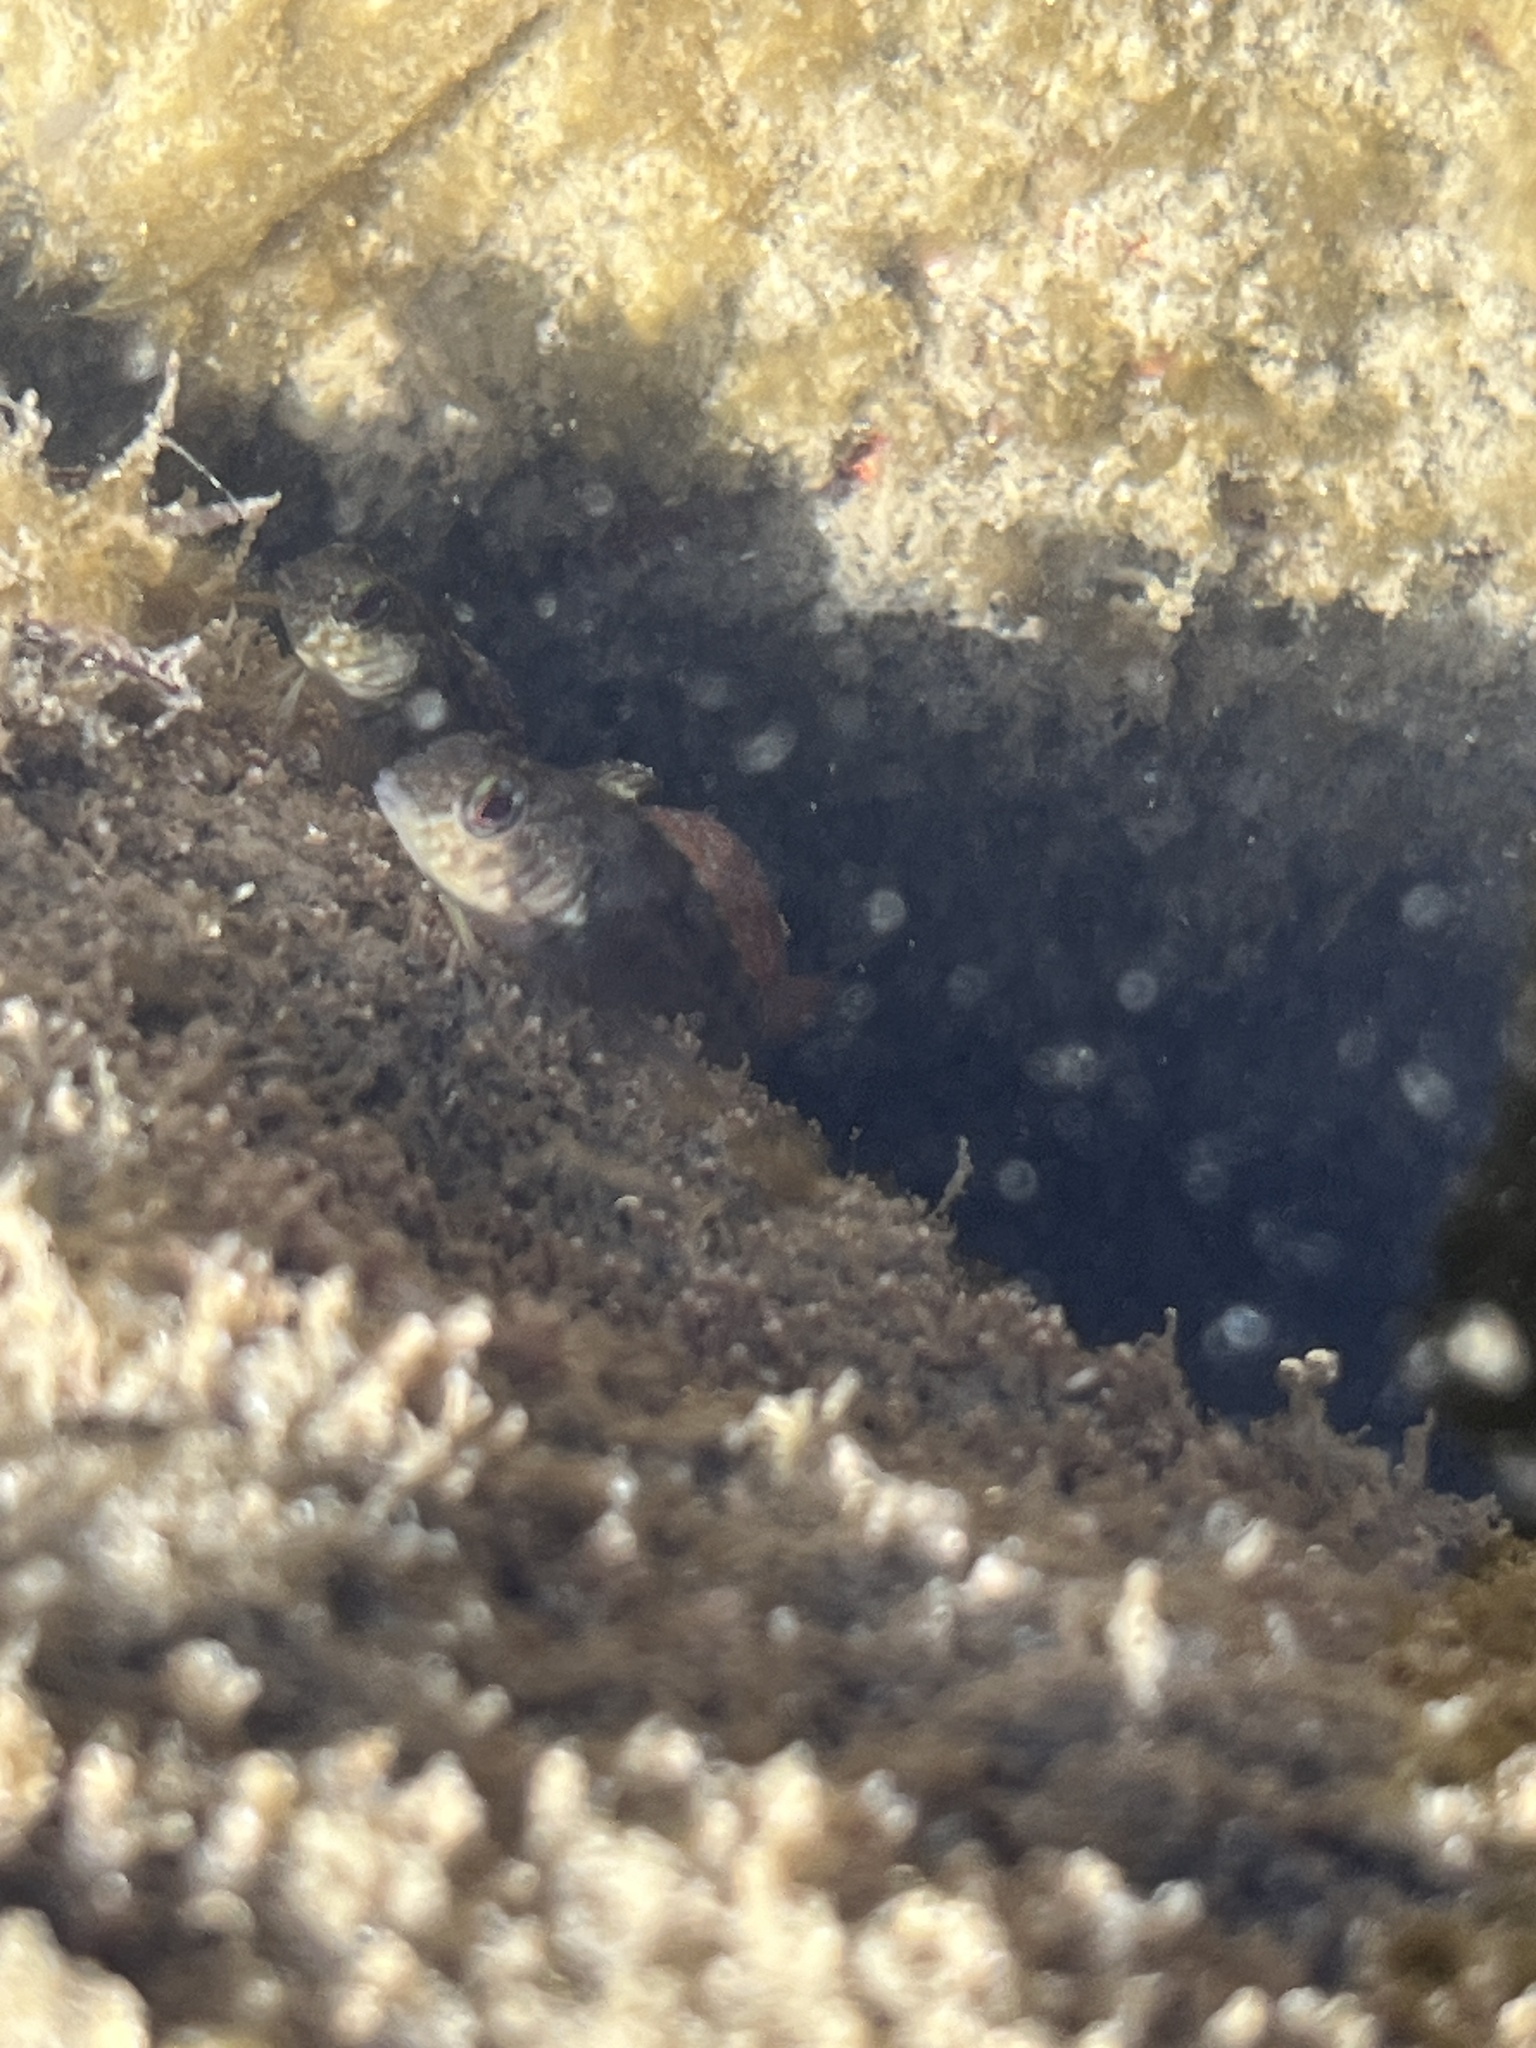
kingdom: Animalia
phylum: Chordata
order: Perciformes
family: Tripterygiidae
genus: Forsterygion
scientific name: Forsterygion lapillum
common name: Common triplefin
